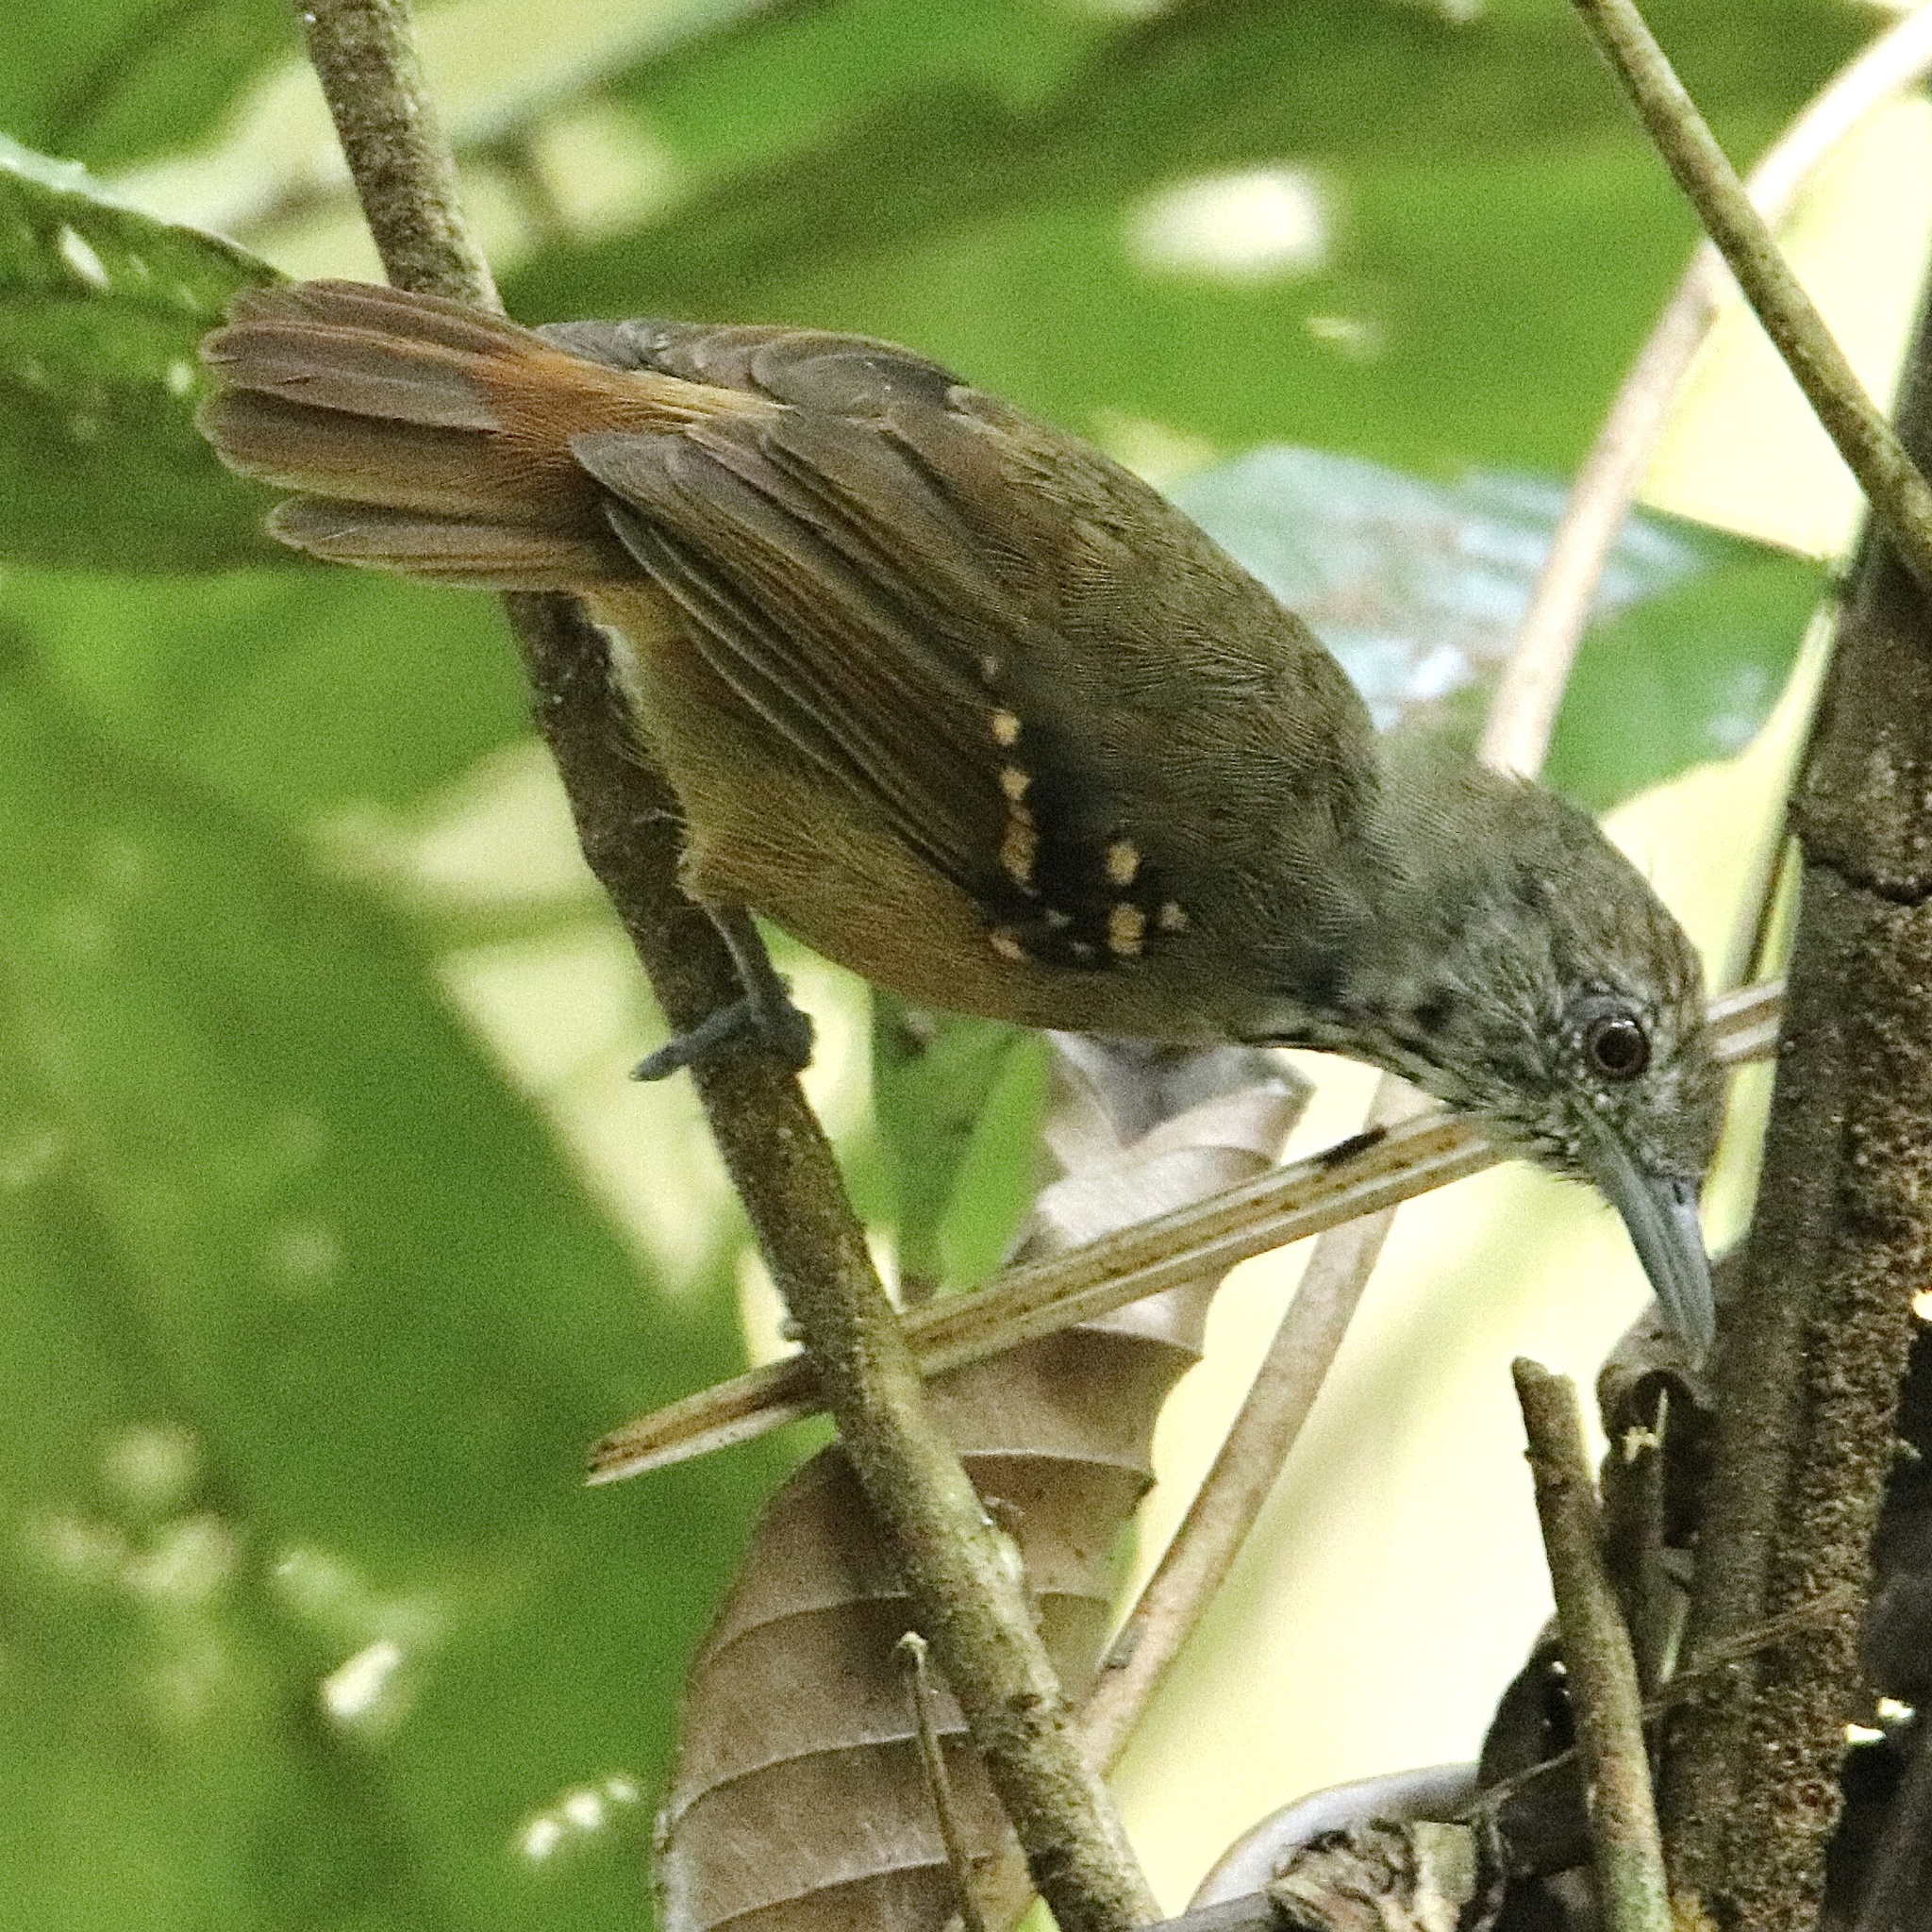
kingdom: Animalia
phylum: Chordata
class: Aves
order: Passeriformes
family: Thamnophilidae
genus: Epinecrophylla
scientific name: Epinecrophylla fulviventris
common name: Checker-throated antwren
